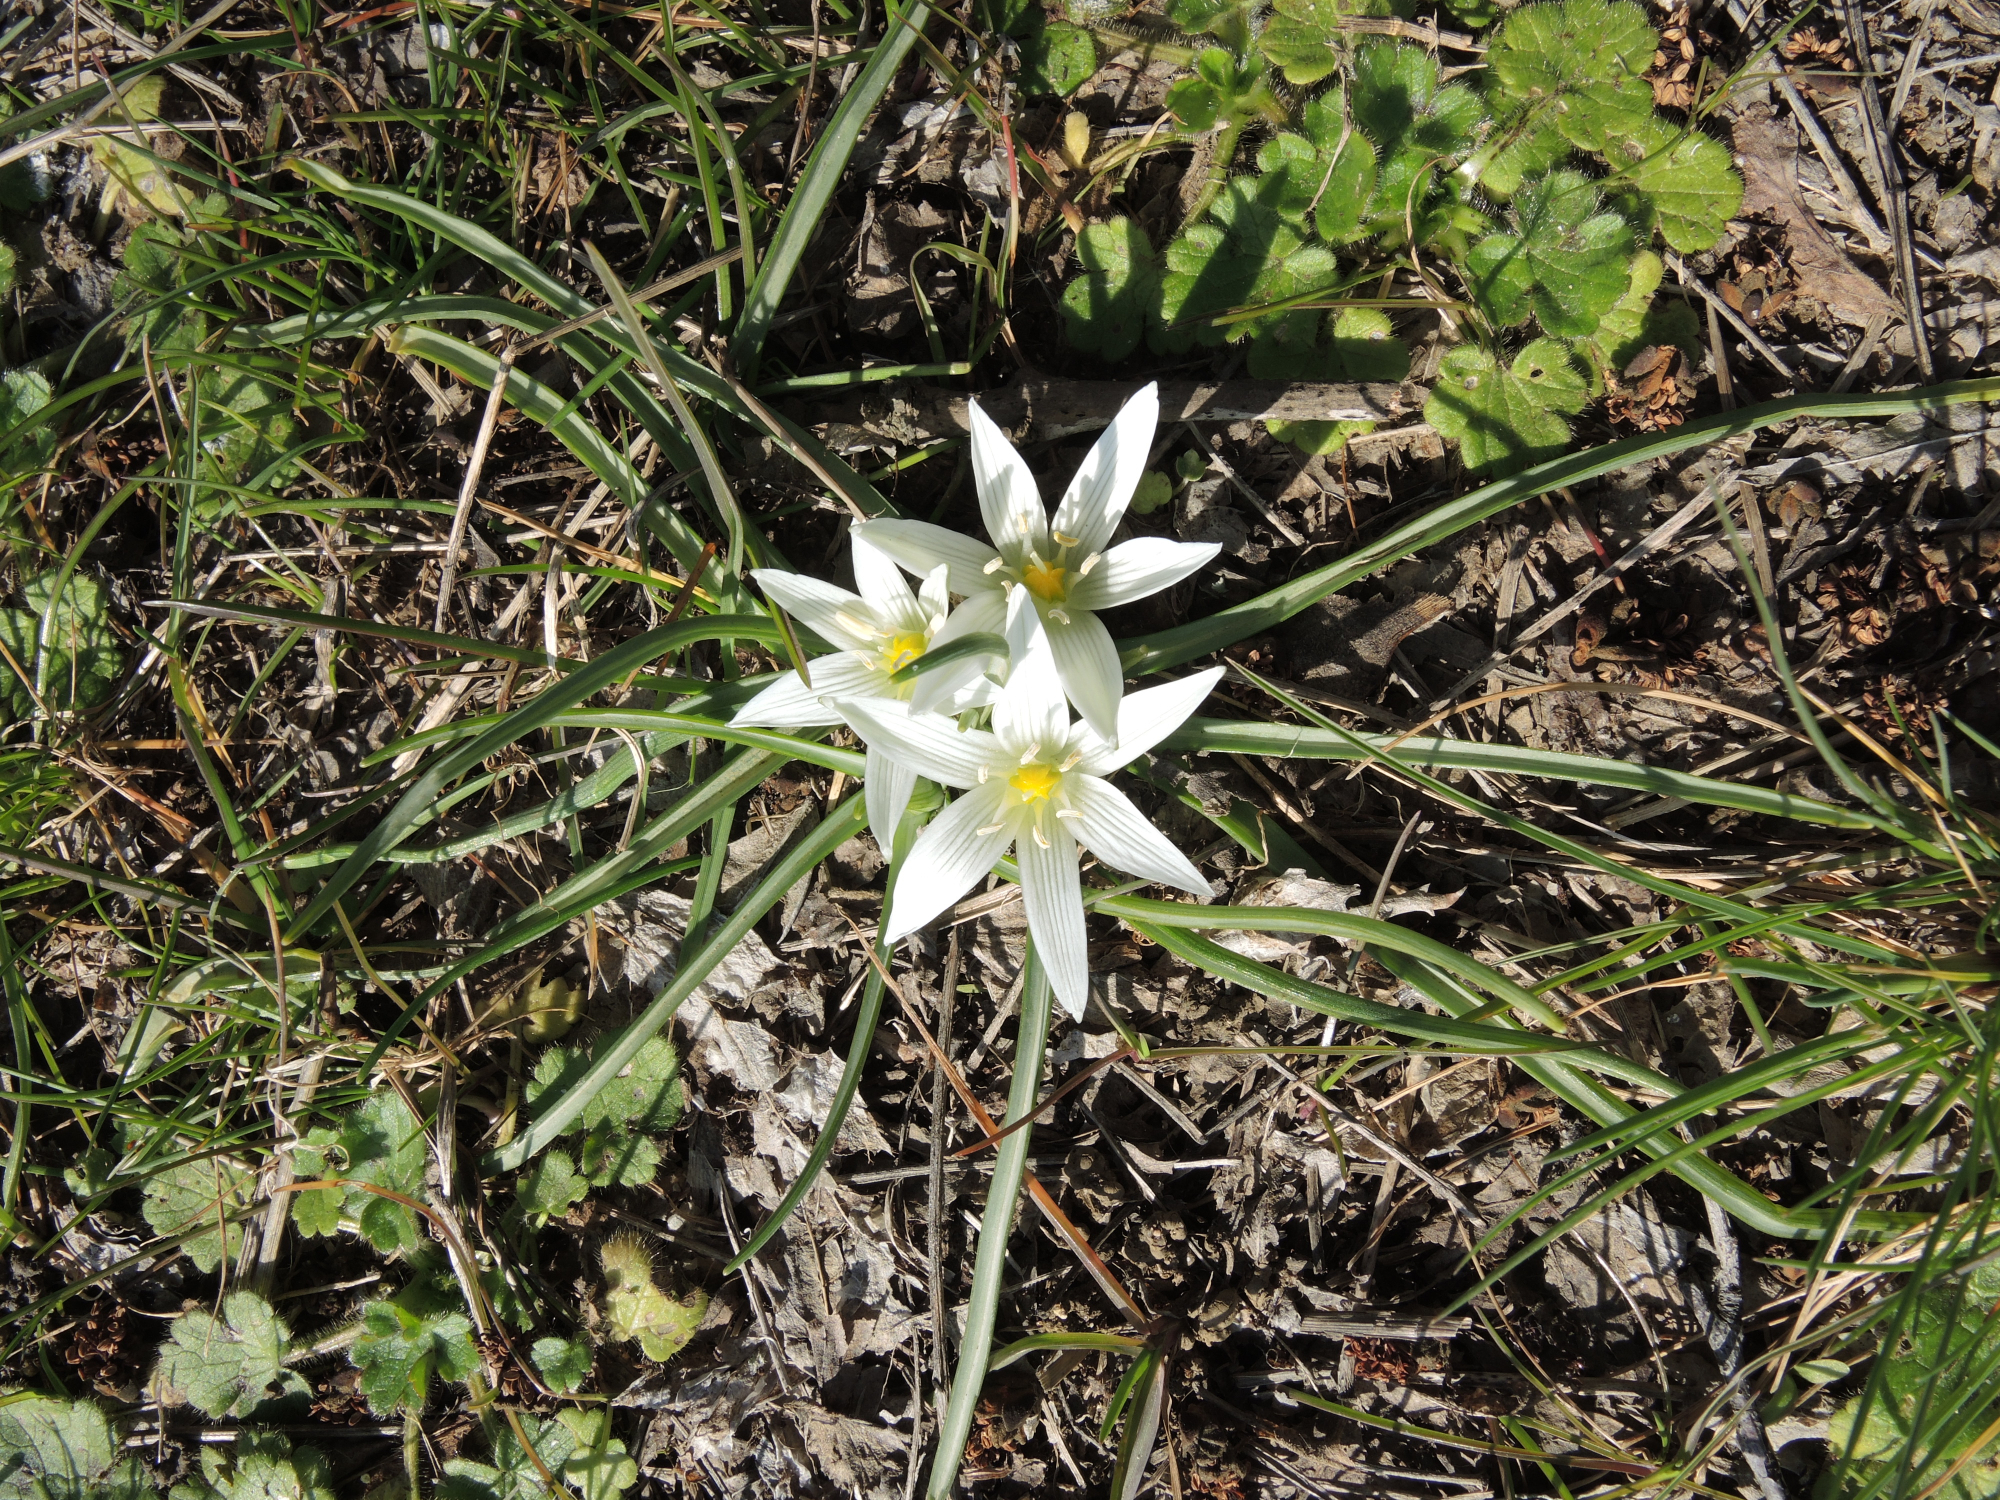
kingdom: Plantae
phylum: Tracheophyta
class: Liliopsida
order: Asparagales
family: Asparagaceae
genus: Ornithogalum
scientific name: Ornithogalum sigmoideum
